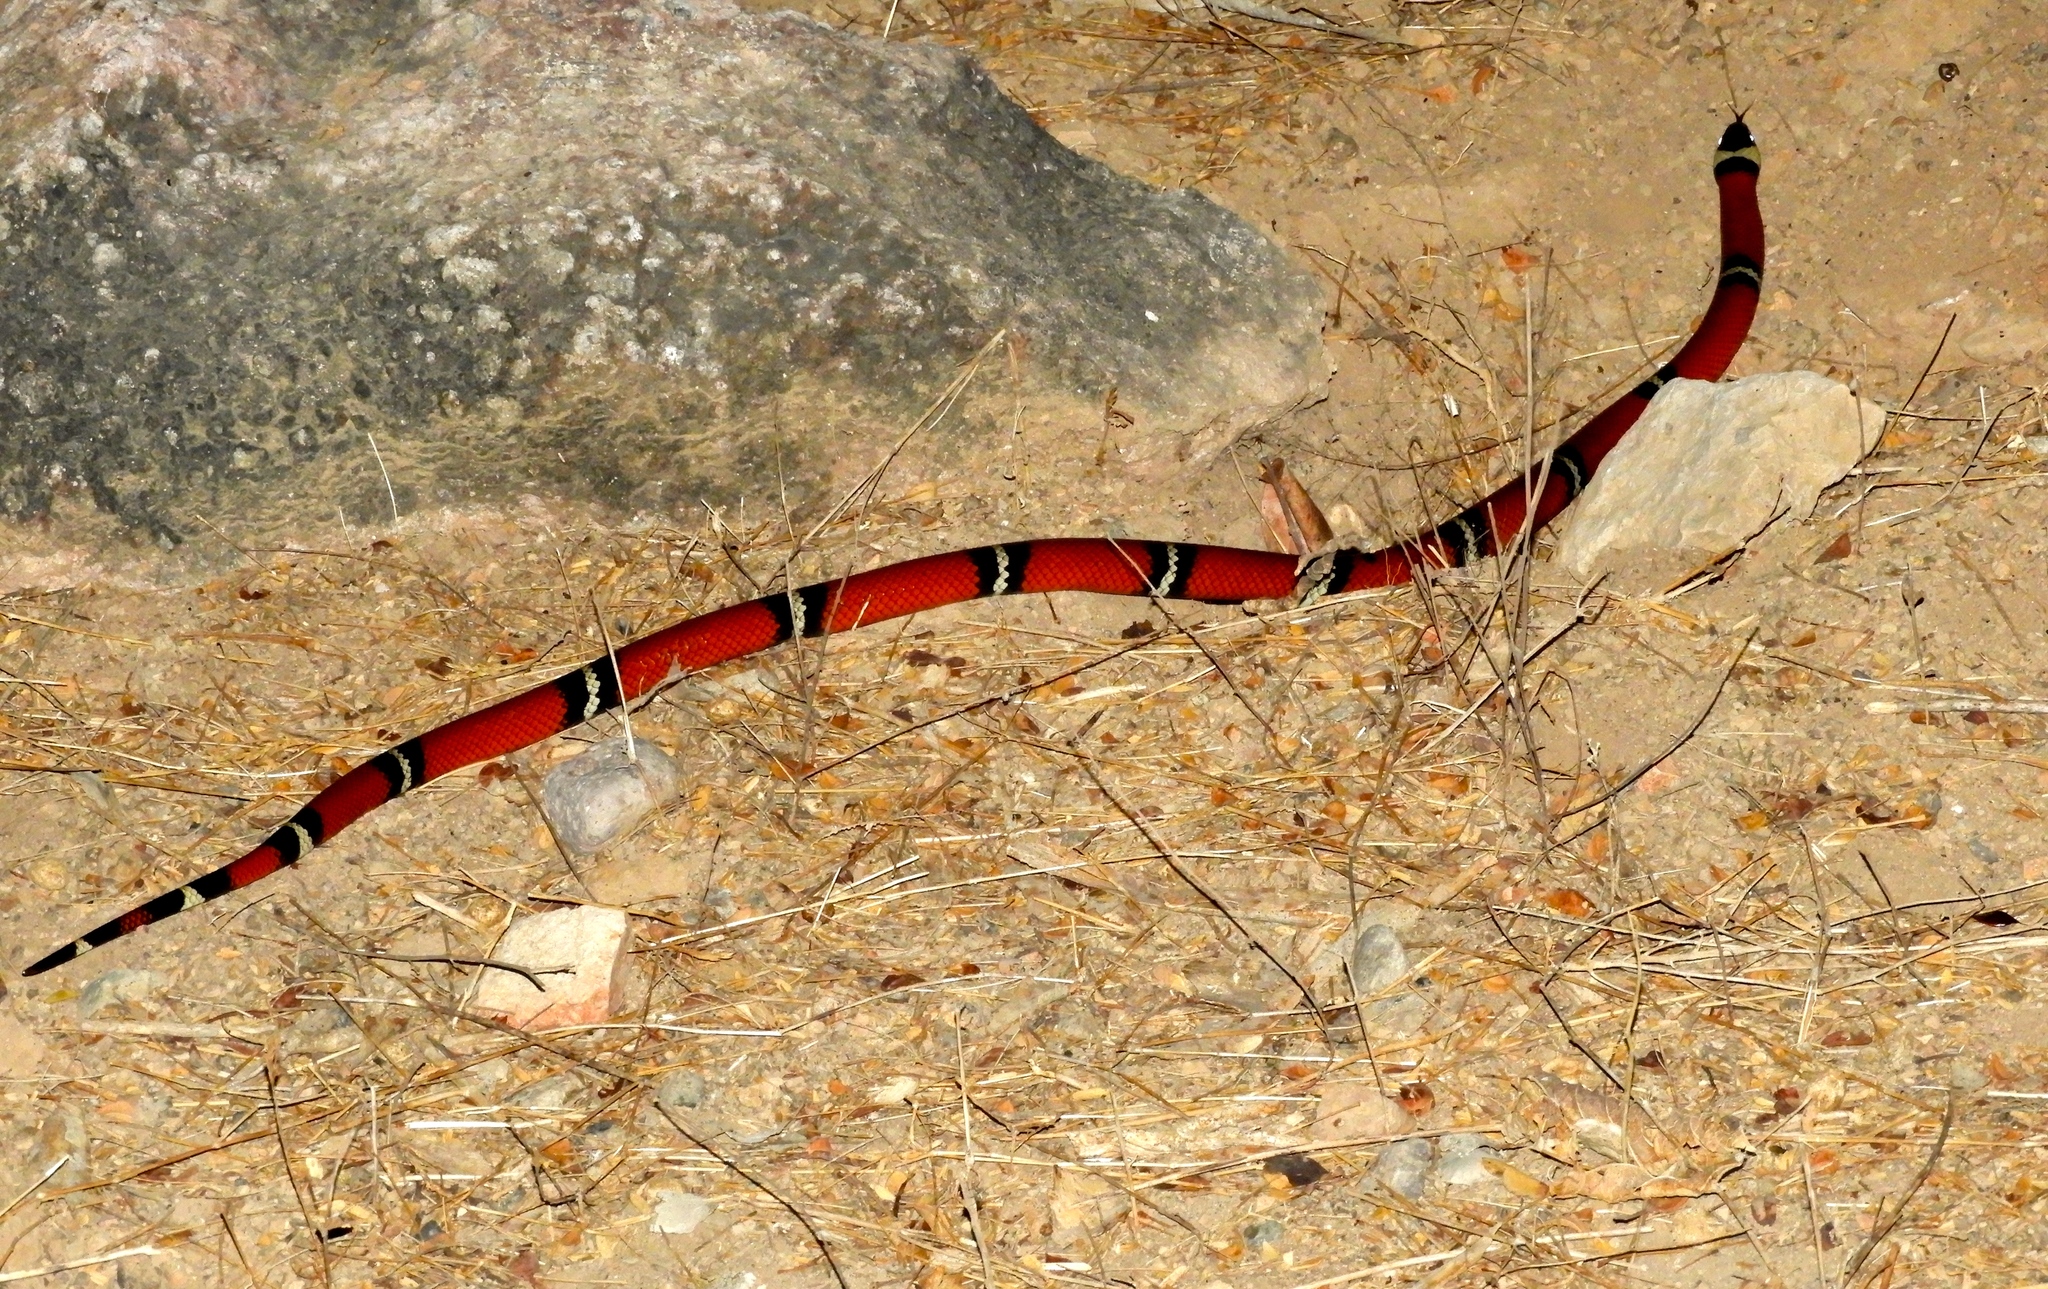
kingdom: Animalia
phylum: Chordata
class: Squamata
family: Colubridae
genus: Lampropeltis
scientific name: Lampropeltis polyzona
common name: Atlantic central american milksnake
